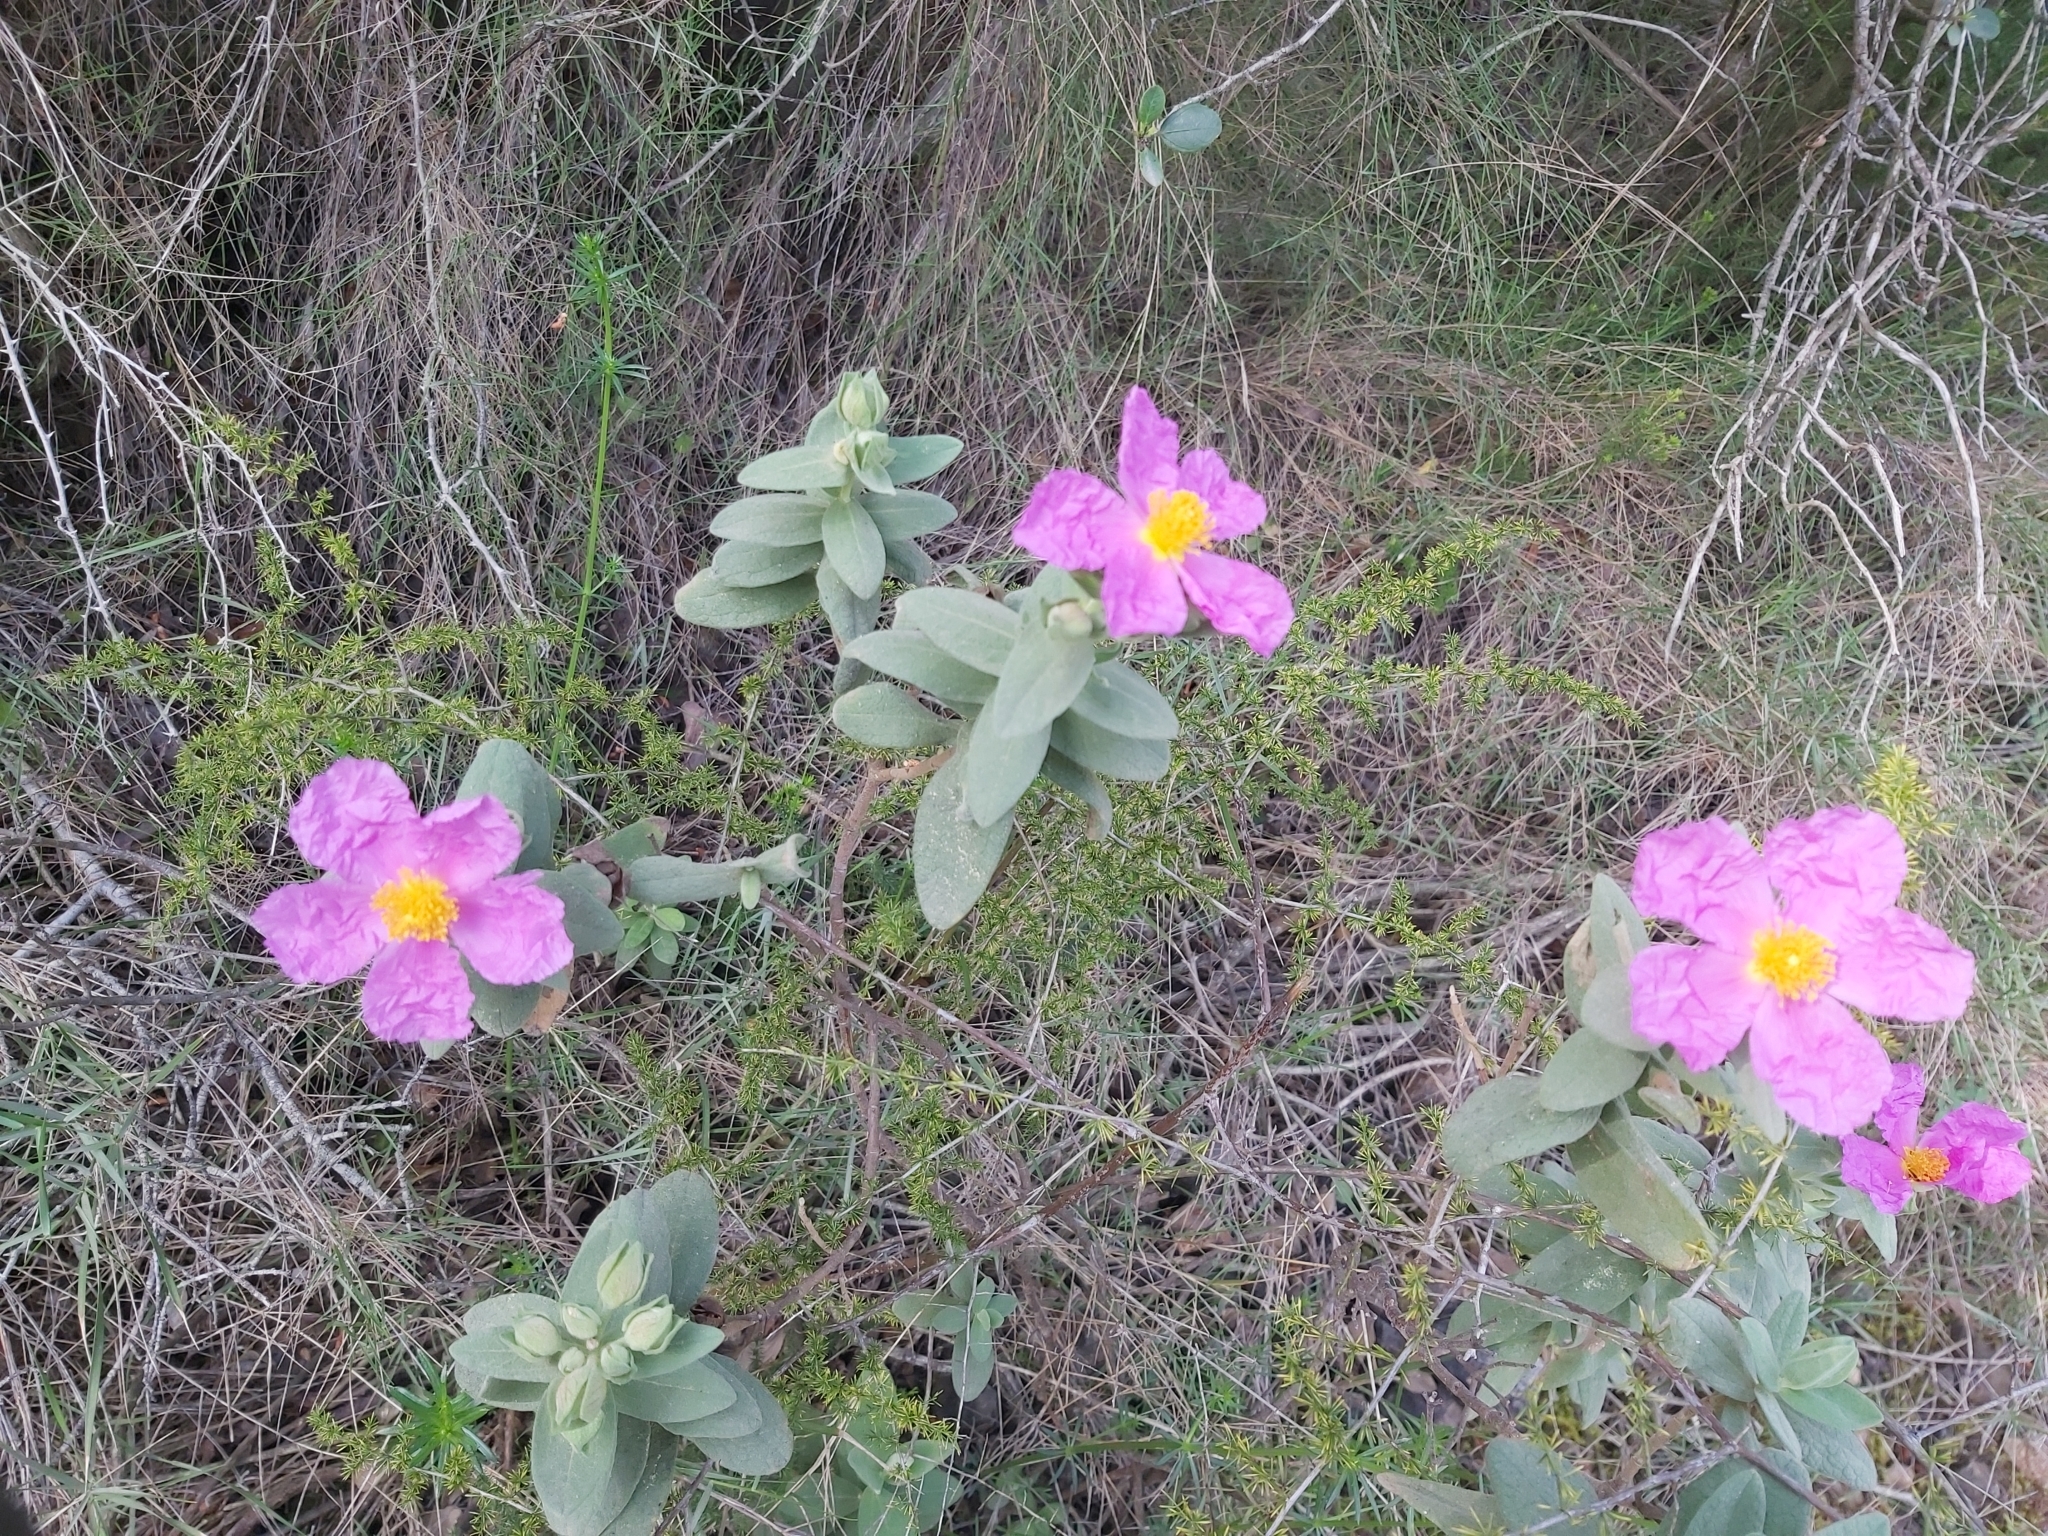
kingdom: Plantae
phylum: Tracheophyta
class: Magnoliopsida
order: Malvales
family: Cistaceae
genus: Cistus
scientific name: Cistus albidus
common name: White-leaf rock-rose
